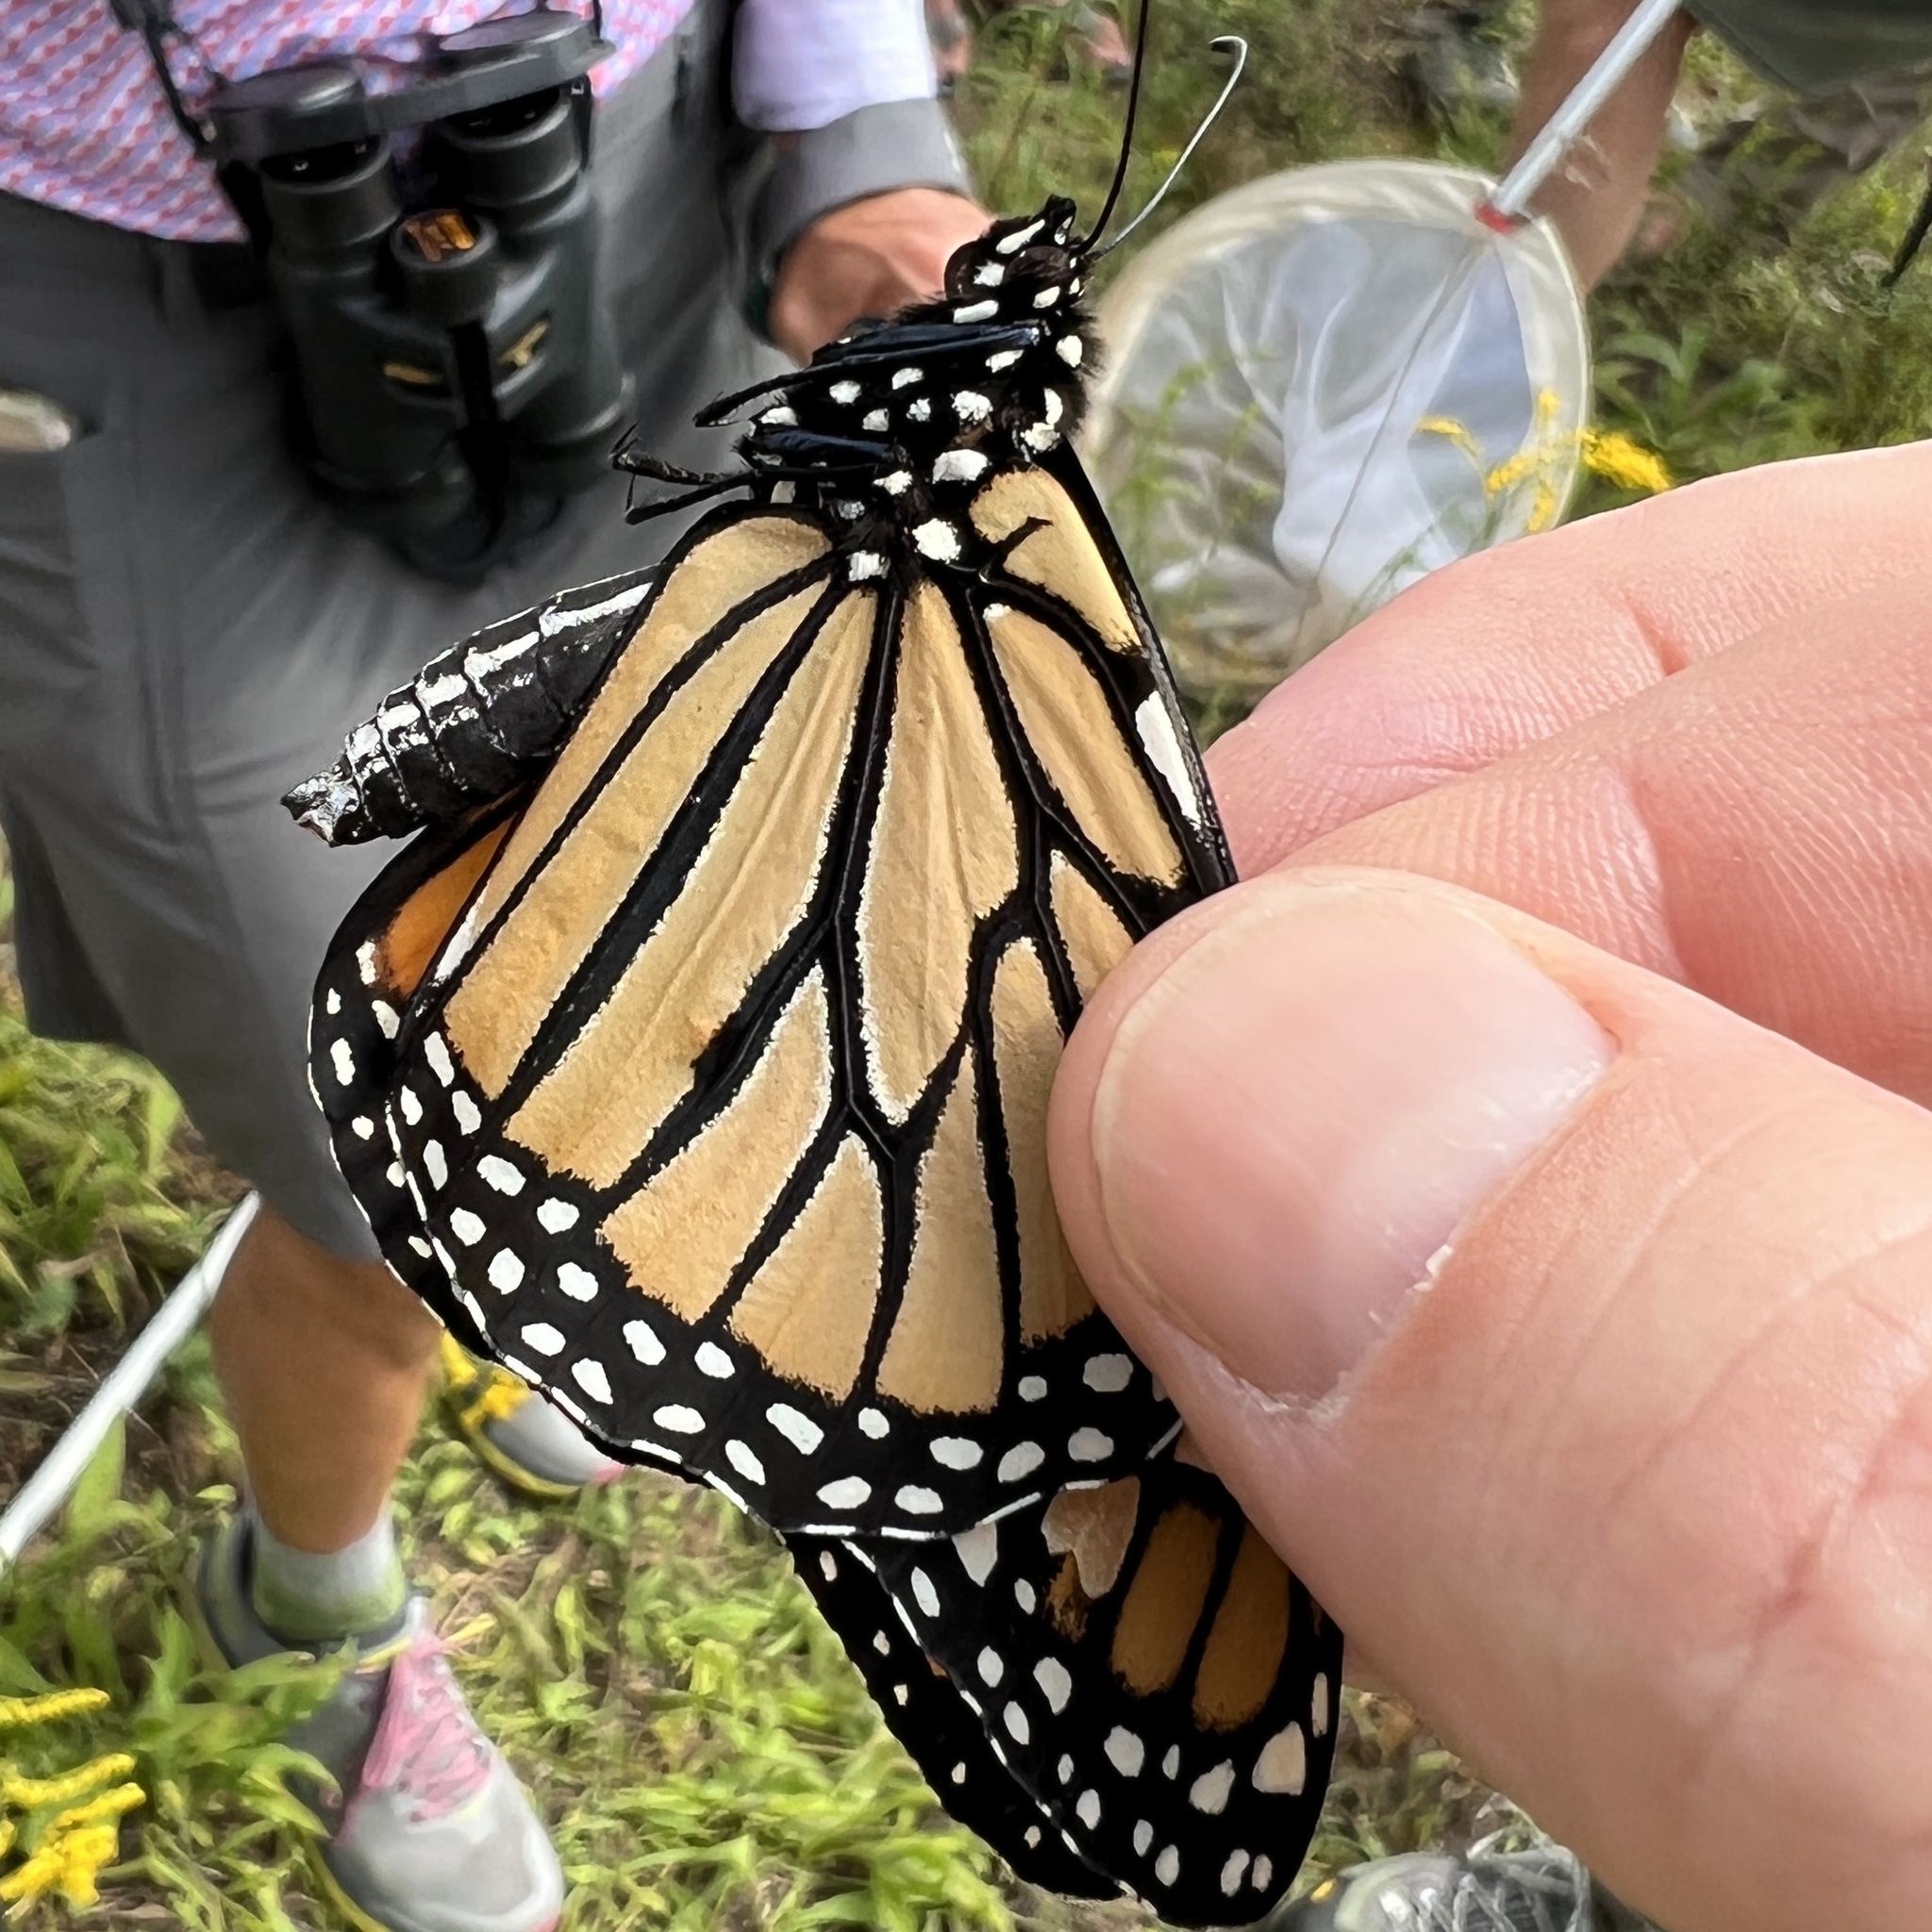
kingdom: Animalia
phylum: Arthropoda
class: Insecta
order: Lepidoptera
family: Nymphalidae
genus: Danaus
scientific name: Danaus plexippus
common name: Monarch
